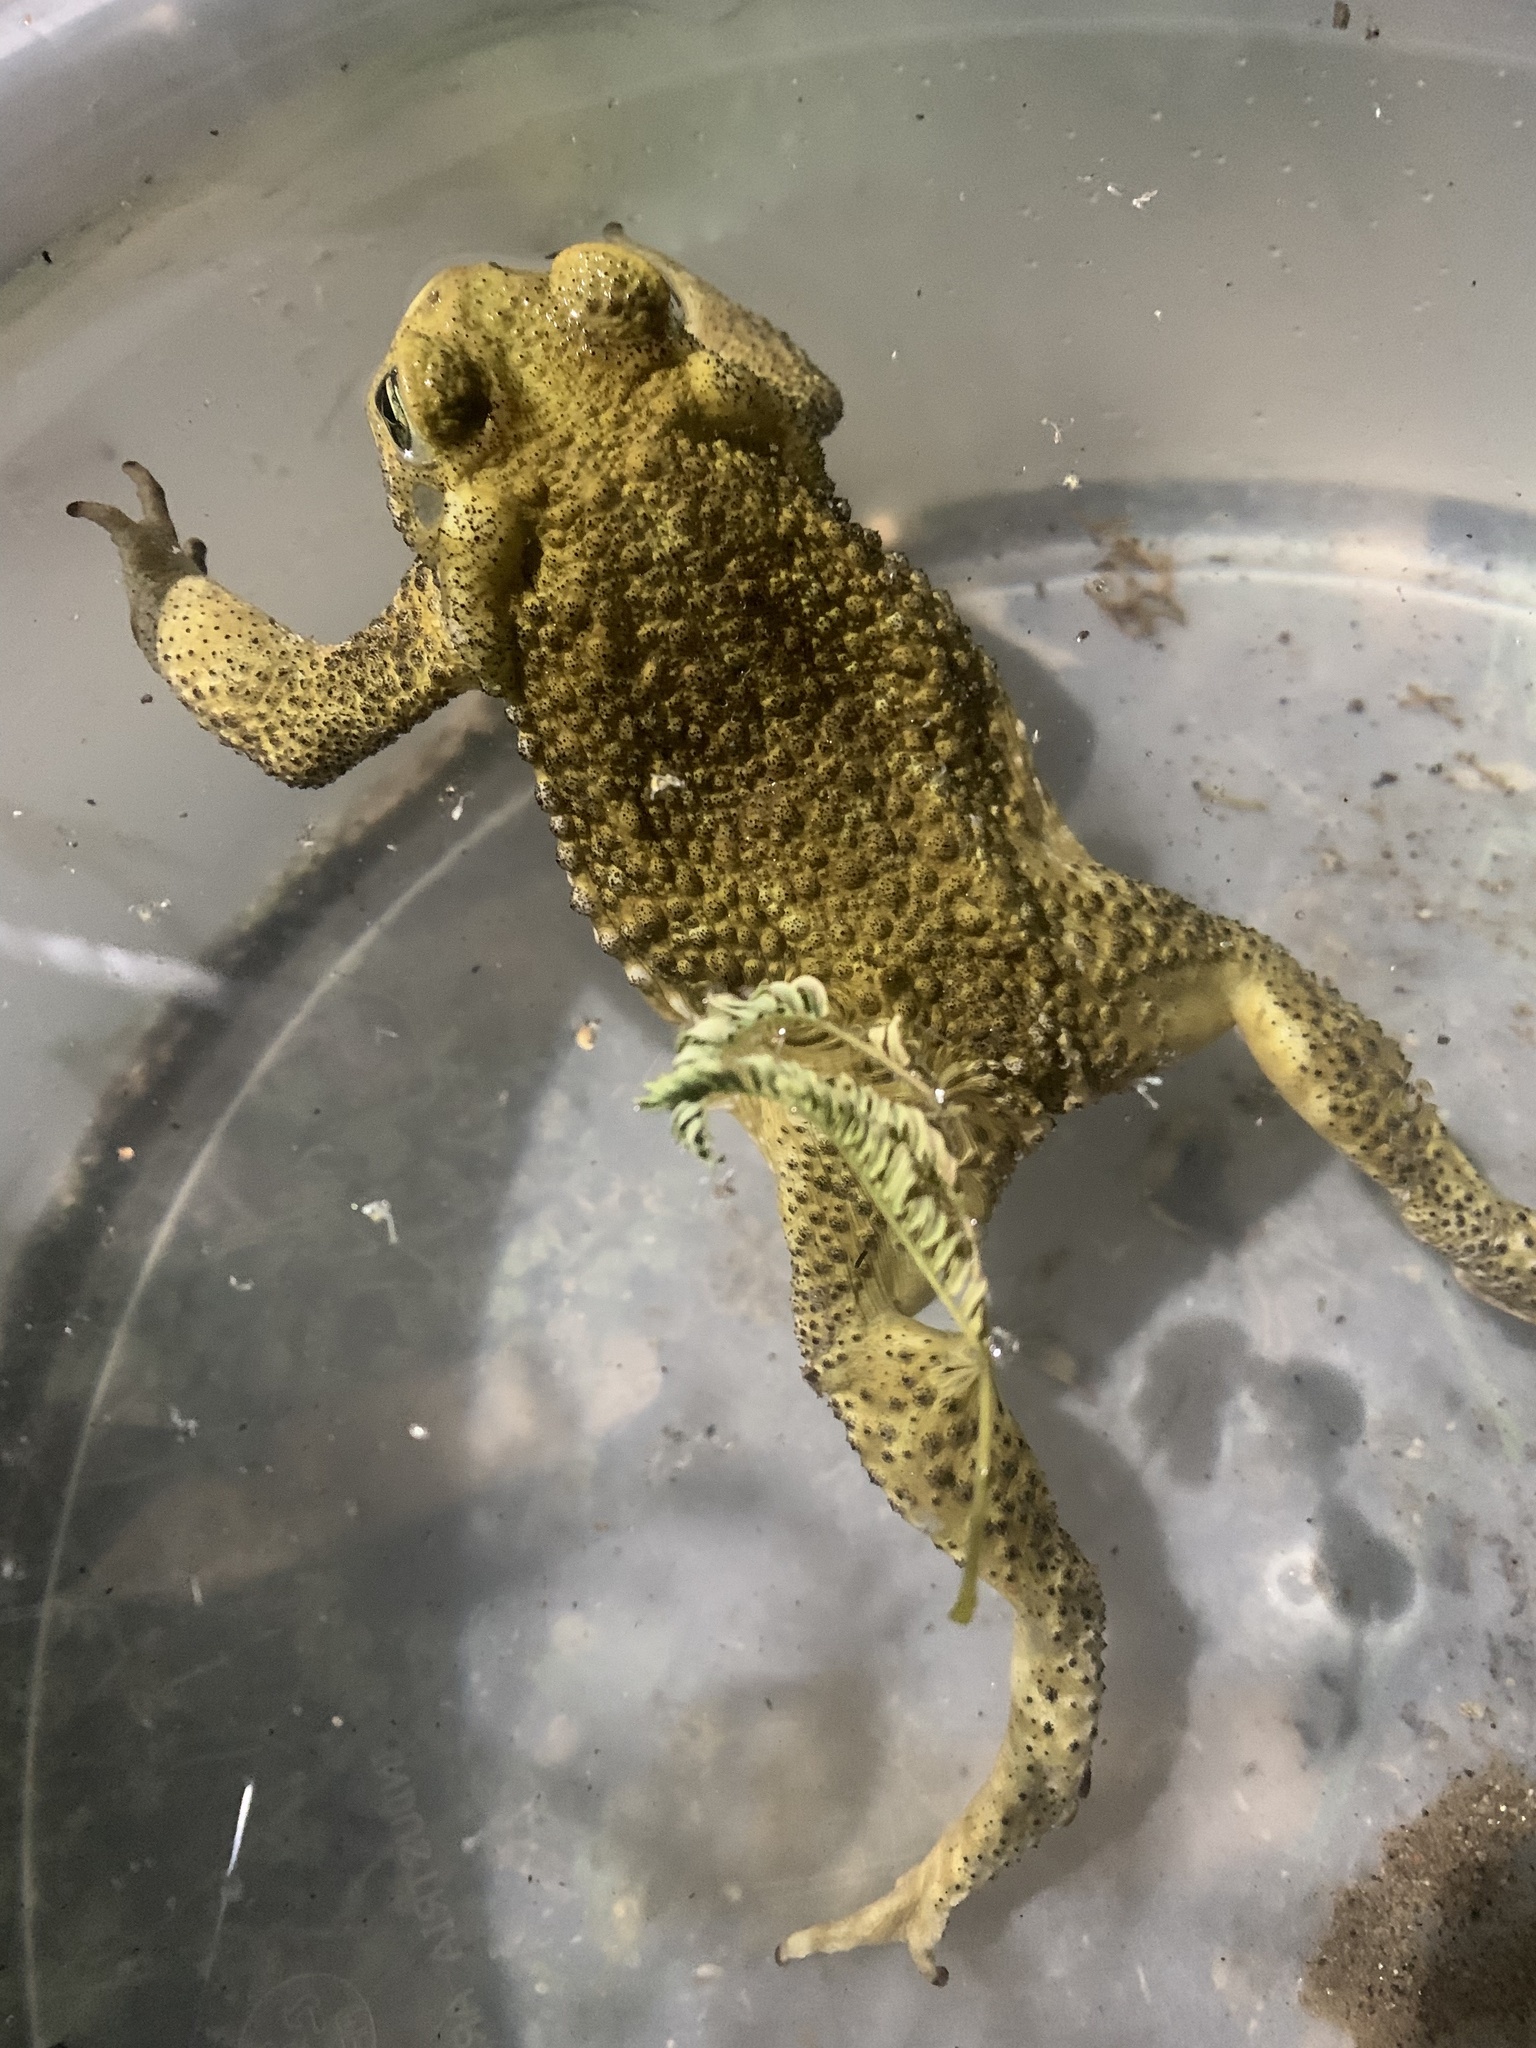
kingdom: Animalia
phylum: Chordata
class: Amphibia
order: Anura
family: Bufonidae
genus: Rhinella
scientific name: Rhinella arenarum
